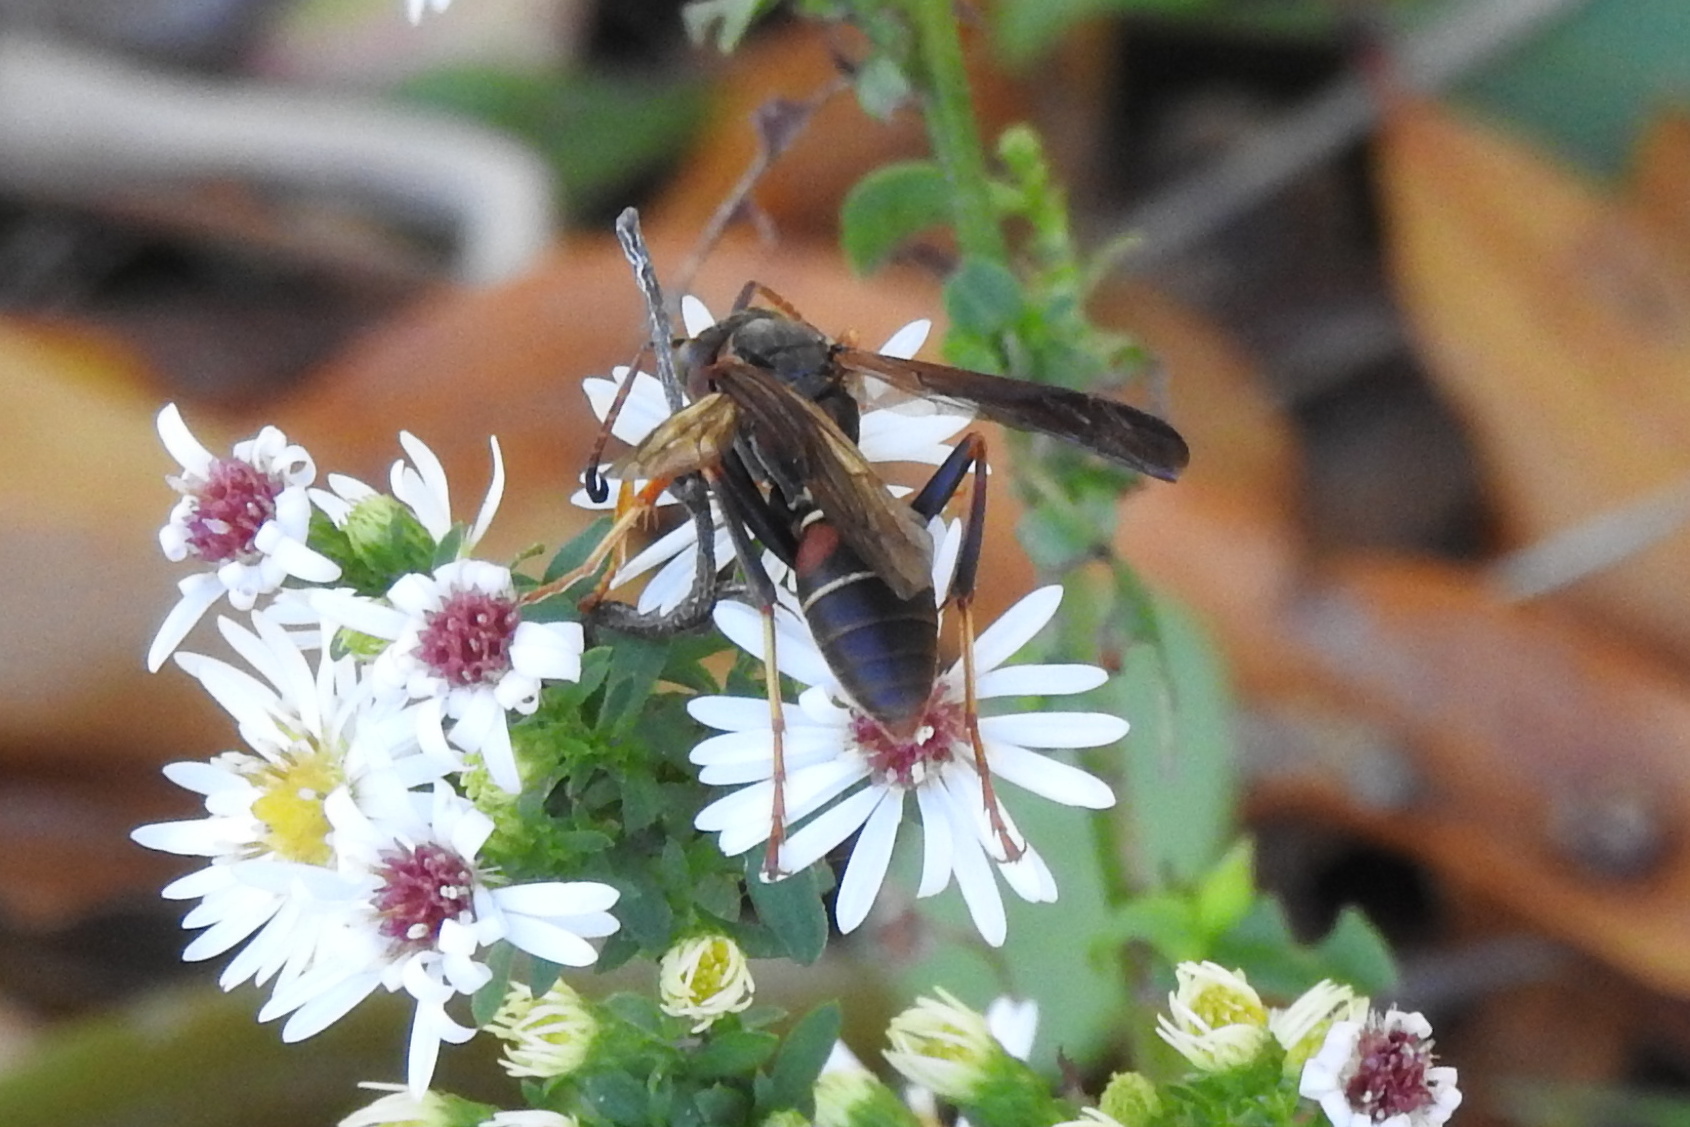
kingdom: Animalia
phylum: Arthropoda
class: Insecta
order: Hymenoptera
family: Eumenidae
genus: Polistes
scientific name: Polistes fuscatus
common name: Dark paper wasp
